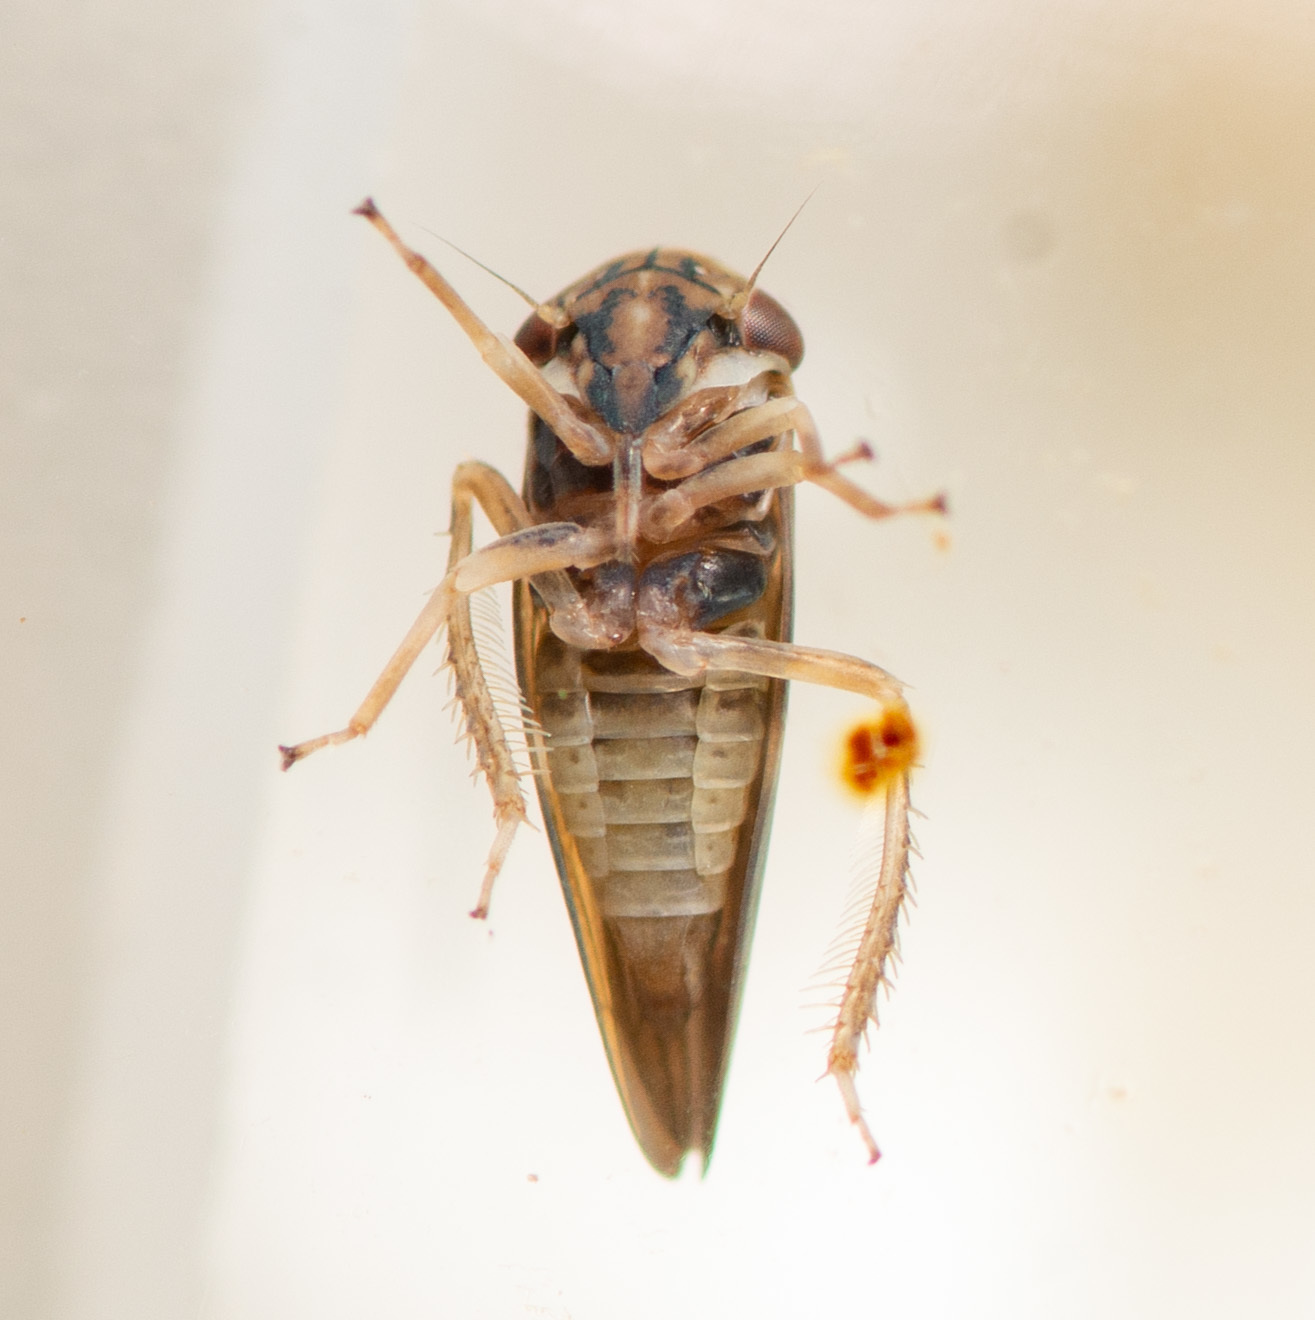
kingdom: Animalia
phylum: Arthropoda
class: Insecta
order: Hemiptera
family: Cicadellidae
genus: Agalliopsis
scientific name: Agalliopsis cervina
